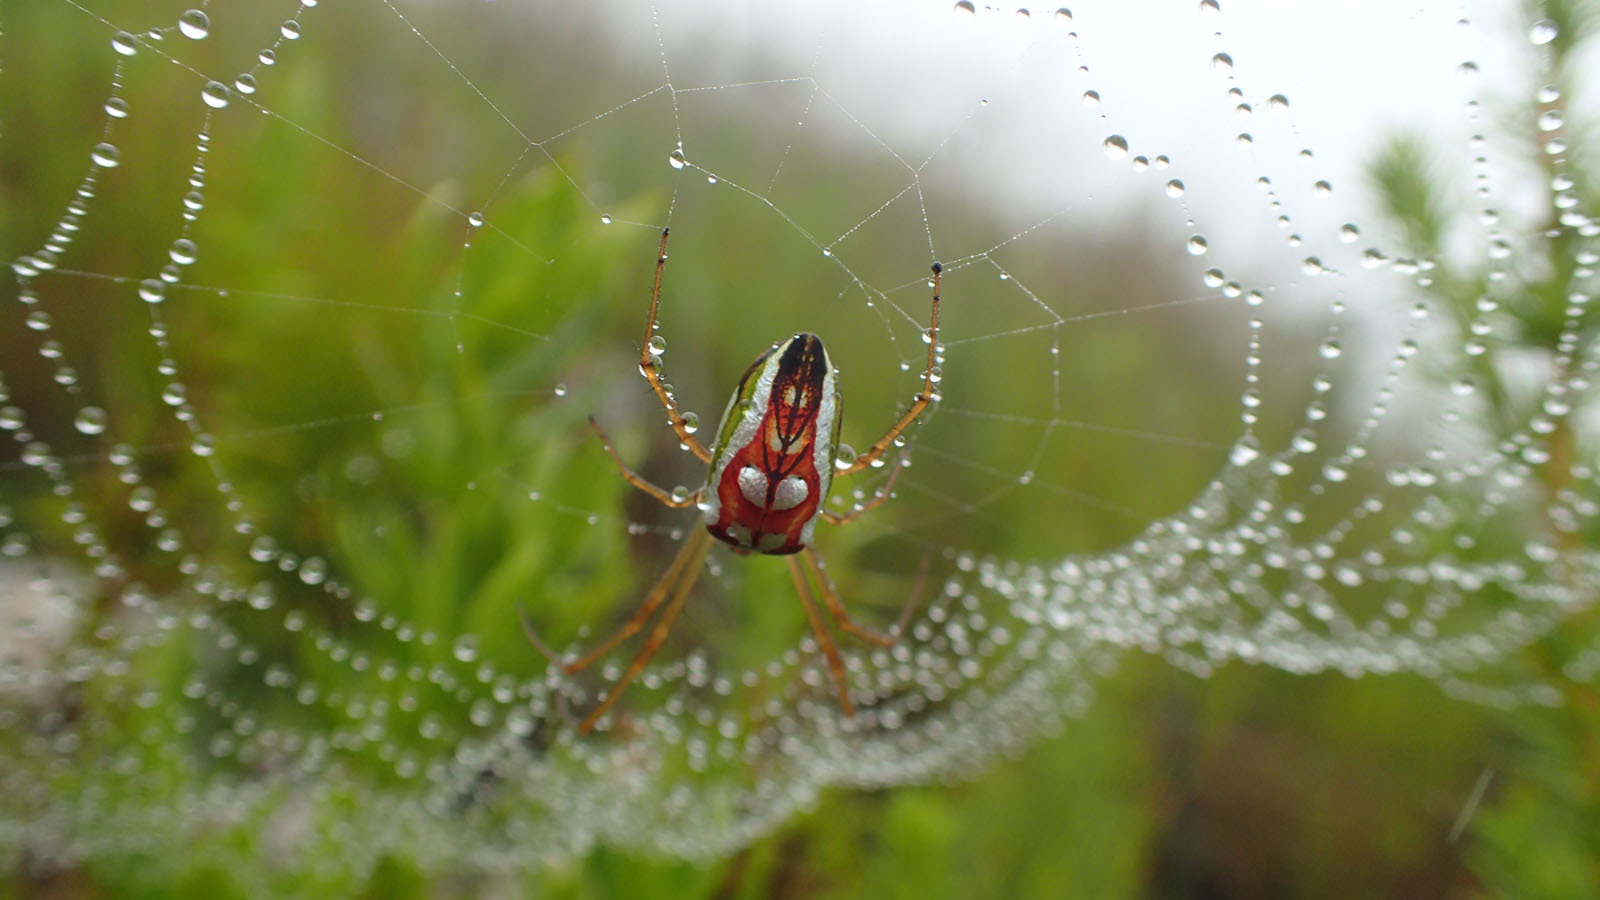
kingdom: Animalia
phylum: Arthropoda
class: Arachnida
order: Araneae
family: Tetragnathidae
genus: Leucauge
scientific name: Leucauge festiva
